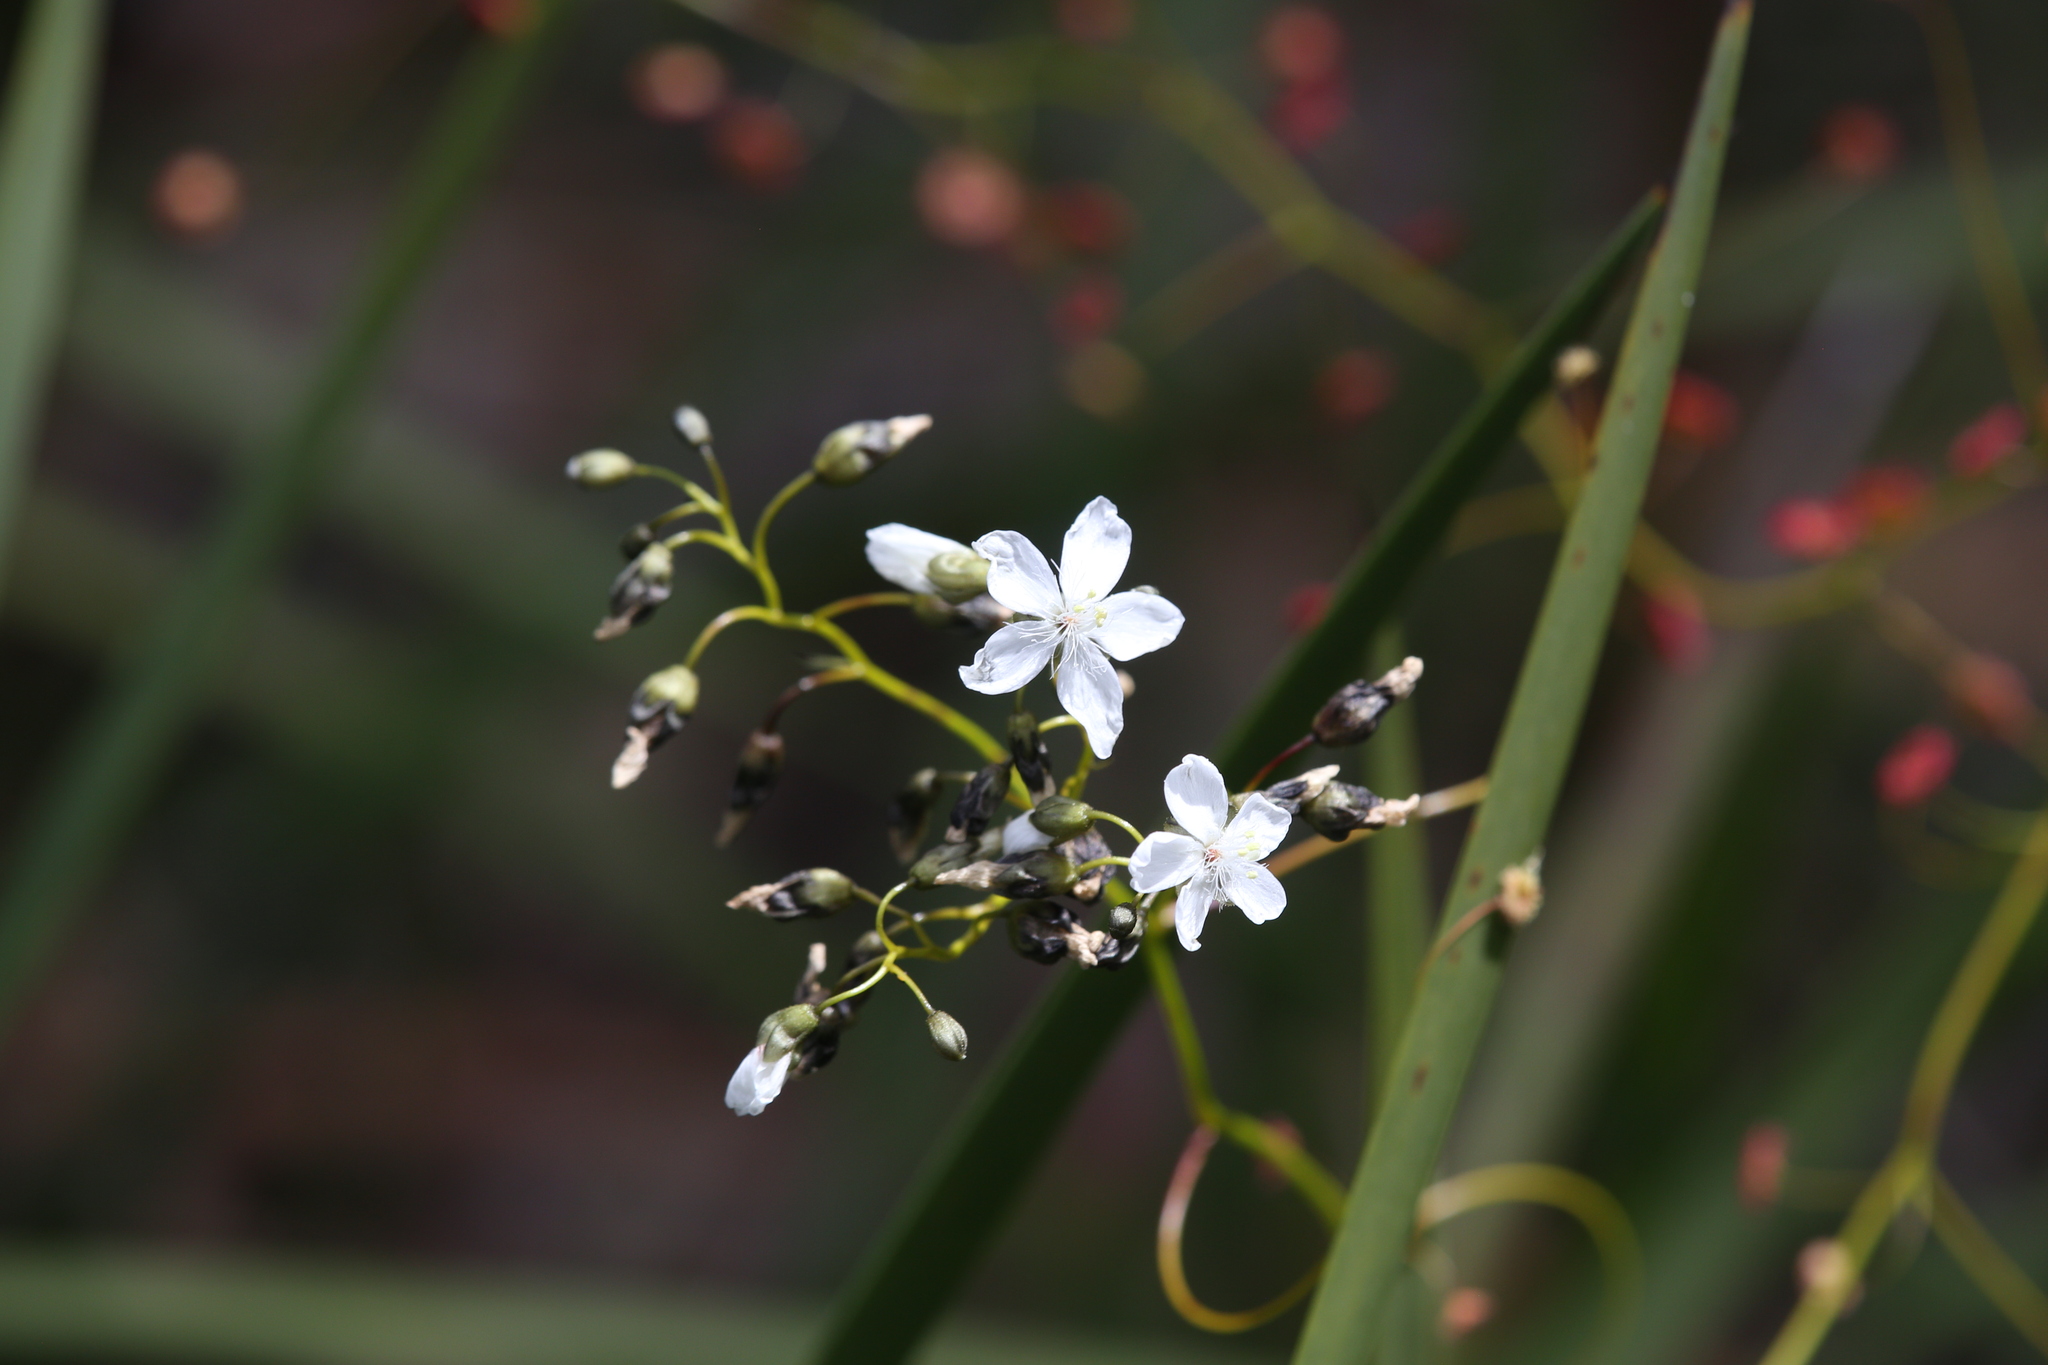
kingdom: Plantae
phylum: Tracheophyta
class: Magnoliopsida
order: Caryophyllales
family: Droseraceae
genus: Drosera
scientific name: Drosera pallida
